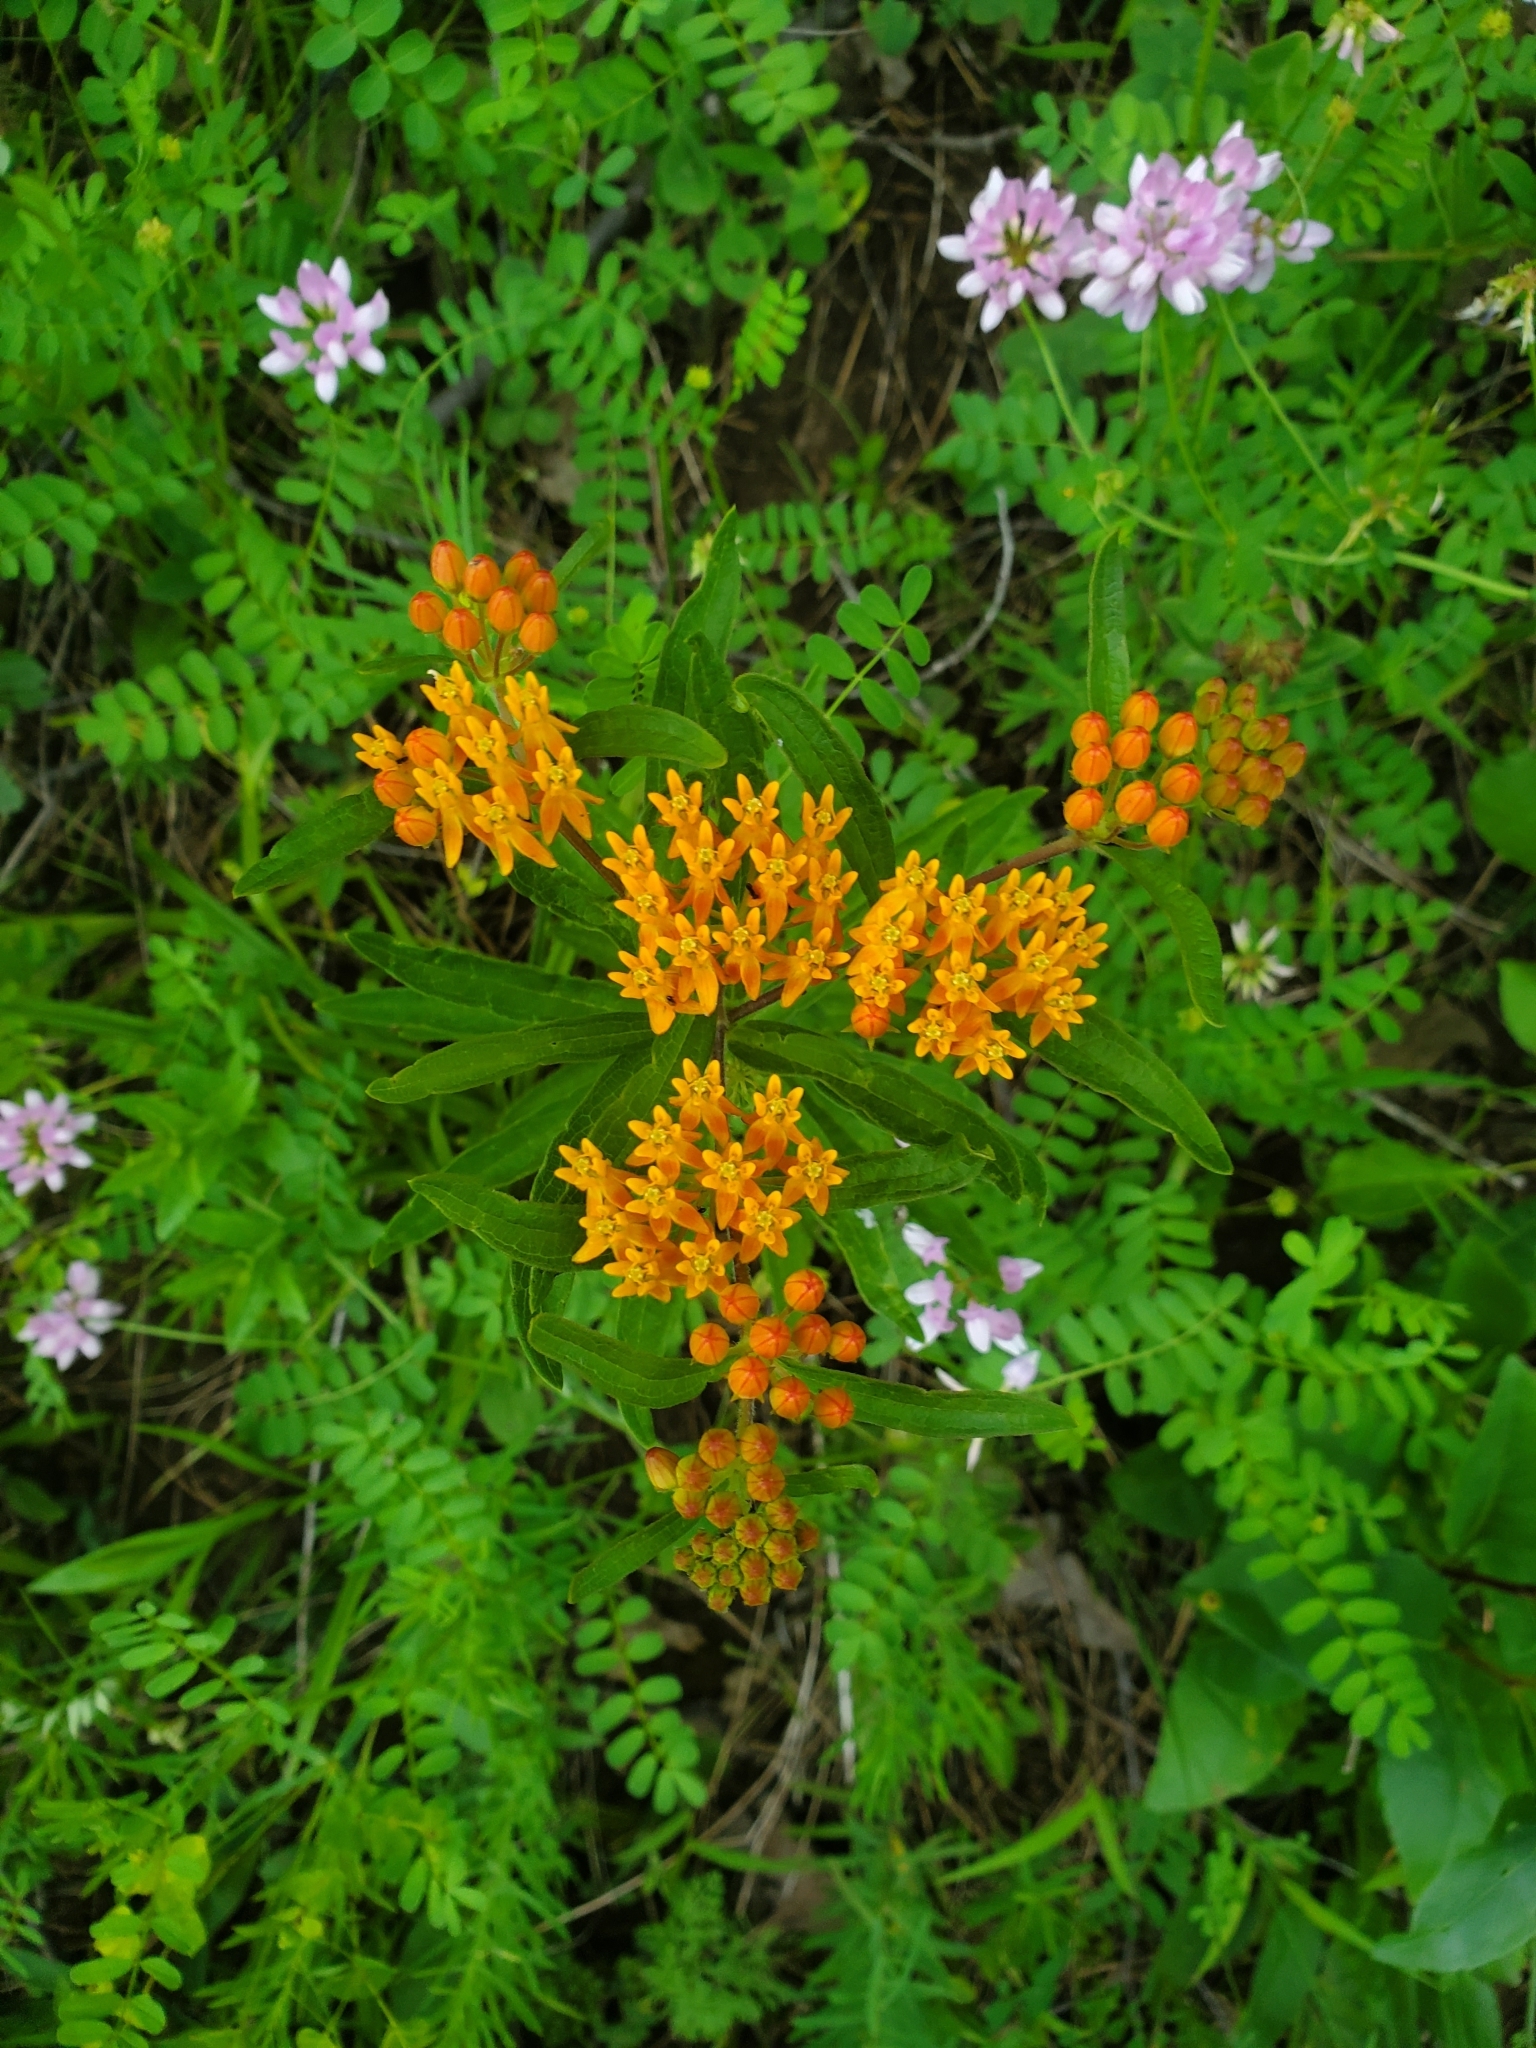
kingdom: Plantae
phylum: Tracheophyta
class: Magnoliopsida
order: Gentianales
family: Apocynaceae
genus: Asclepias
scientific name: Asclepias tuberosa
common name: Butterfly milkweed
